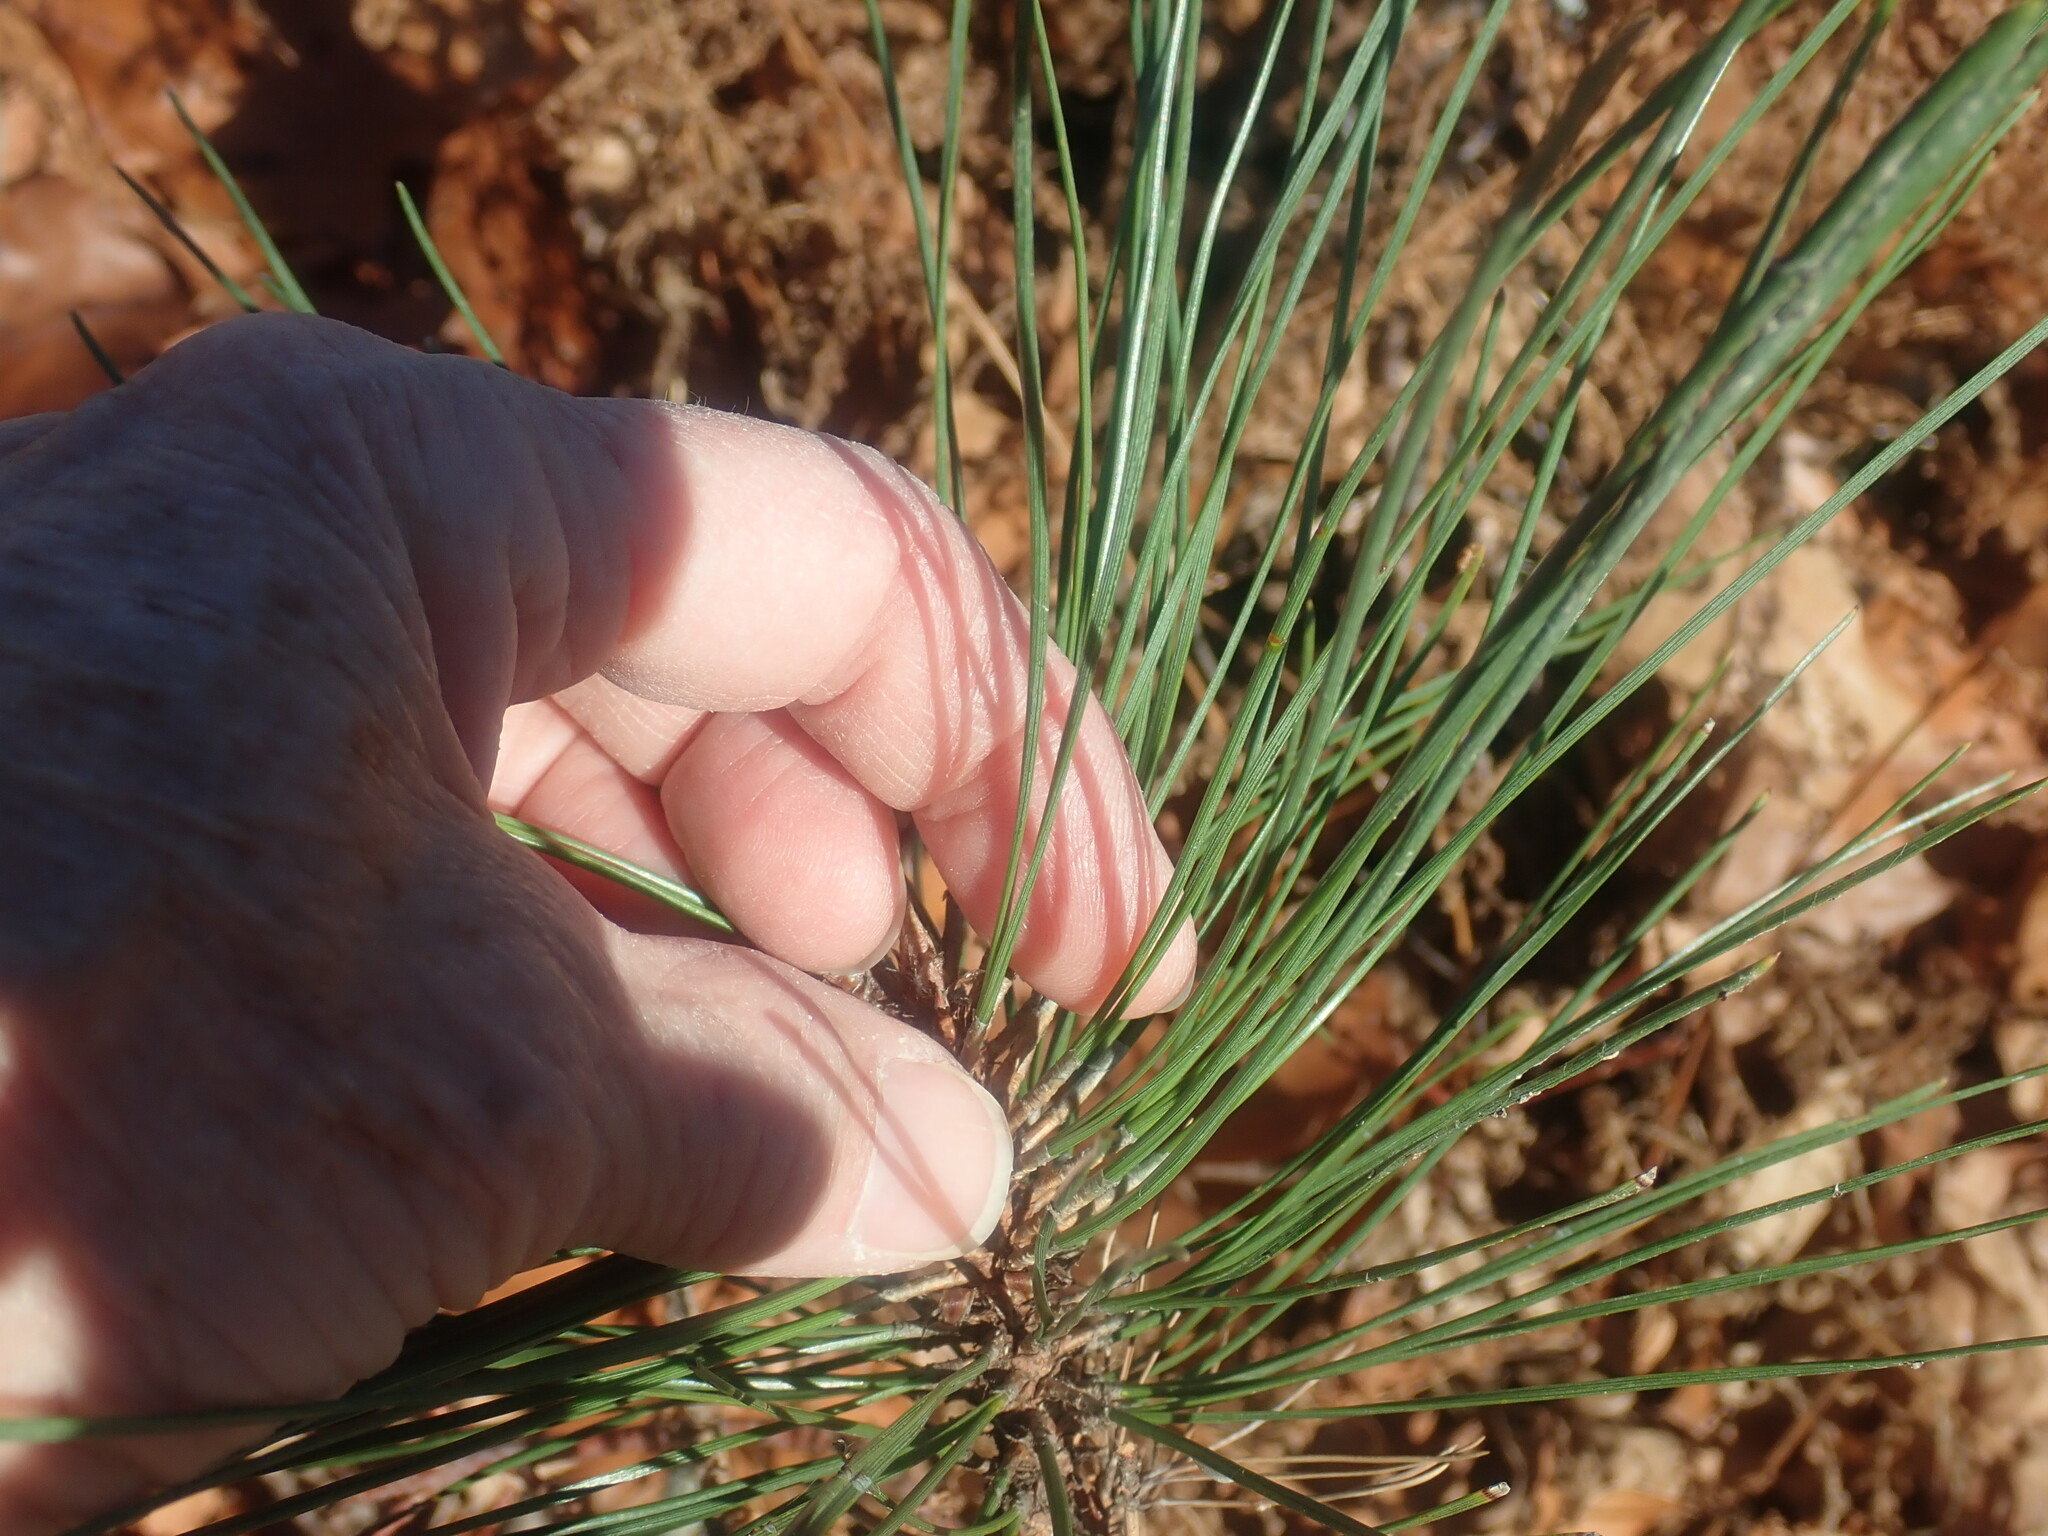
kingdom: Plantae
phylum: Tracheophyta
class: Pinopsida
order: Pinales
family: Pinaceae
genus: Pinus
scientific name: Pinus resinosa
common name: Norway pine
